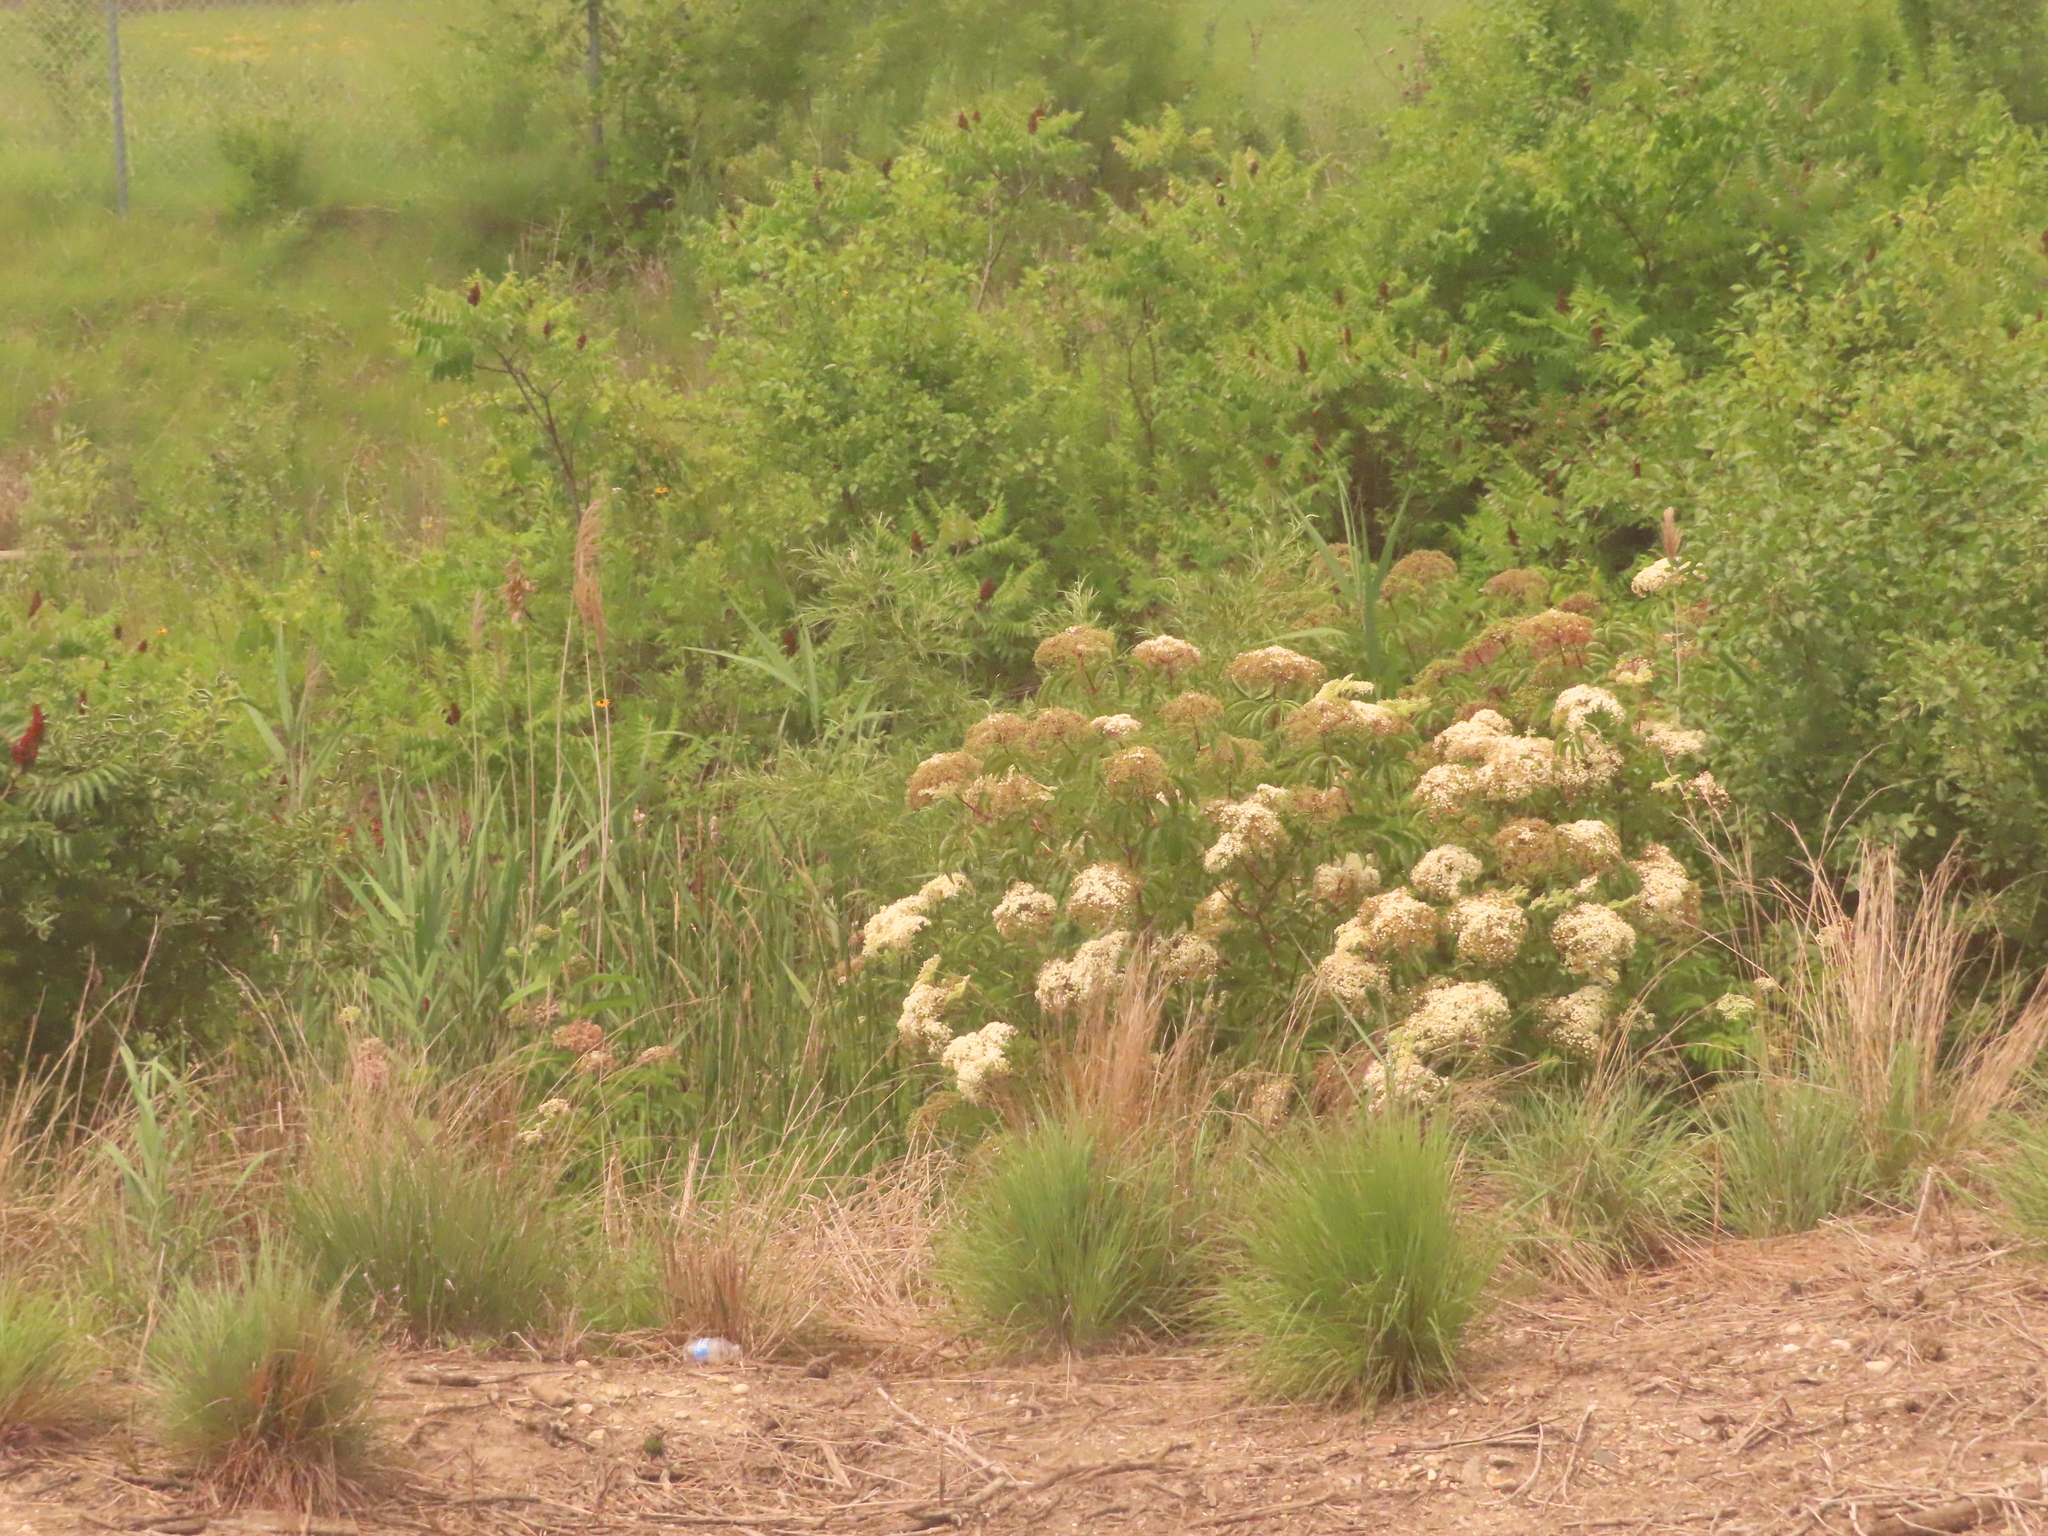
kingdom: Plantae
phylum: Tracheophyta
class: Magnoliopsida
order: Dipsacales
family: Viburnaceae
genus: Sambucus
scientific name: Sambucus canadensis
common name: American elder
